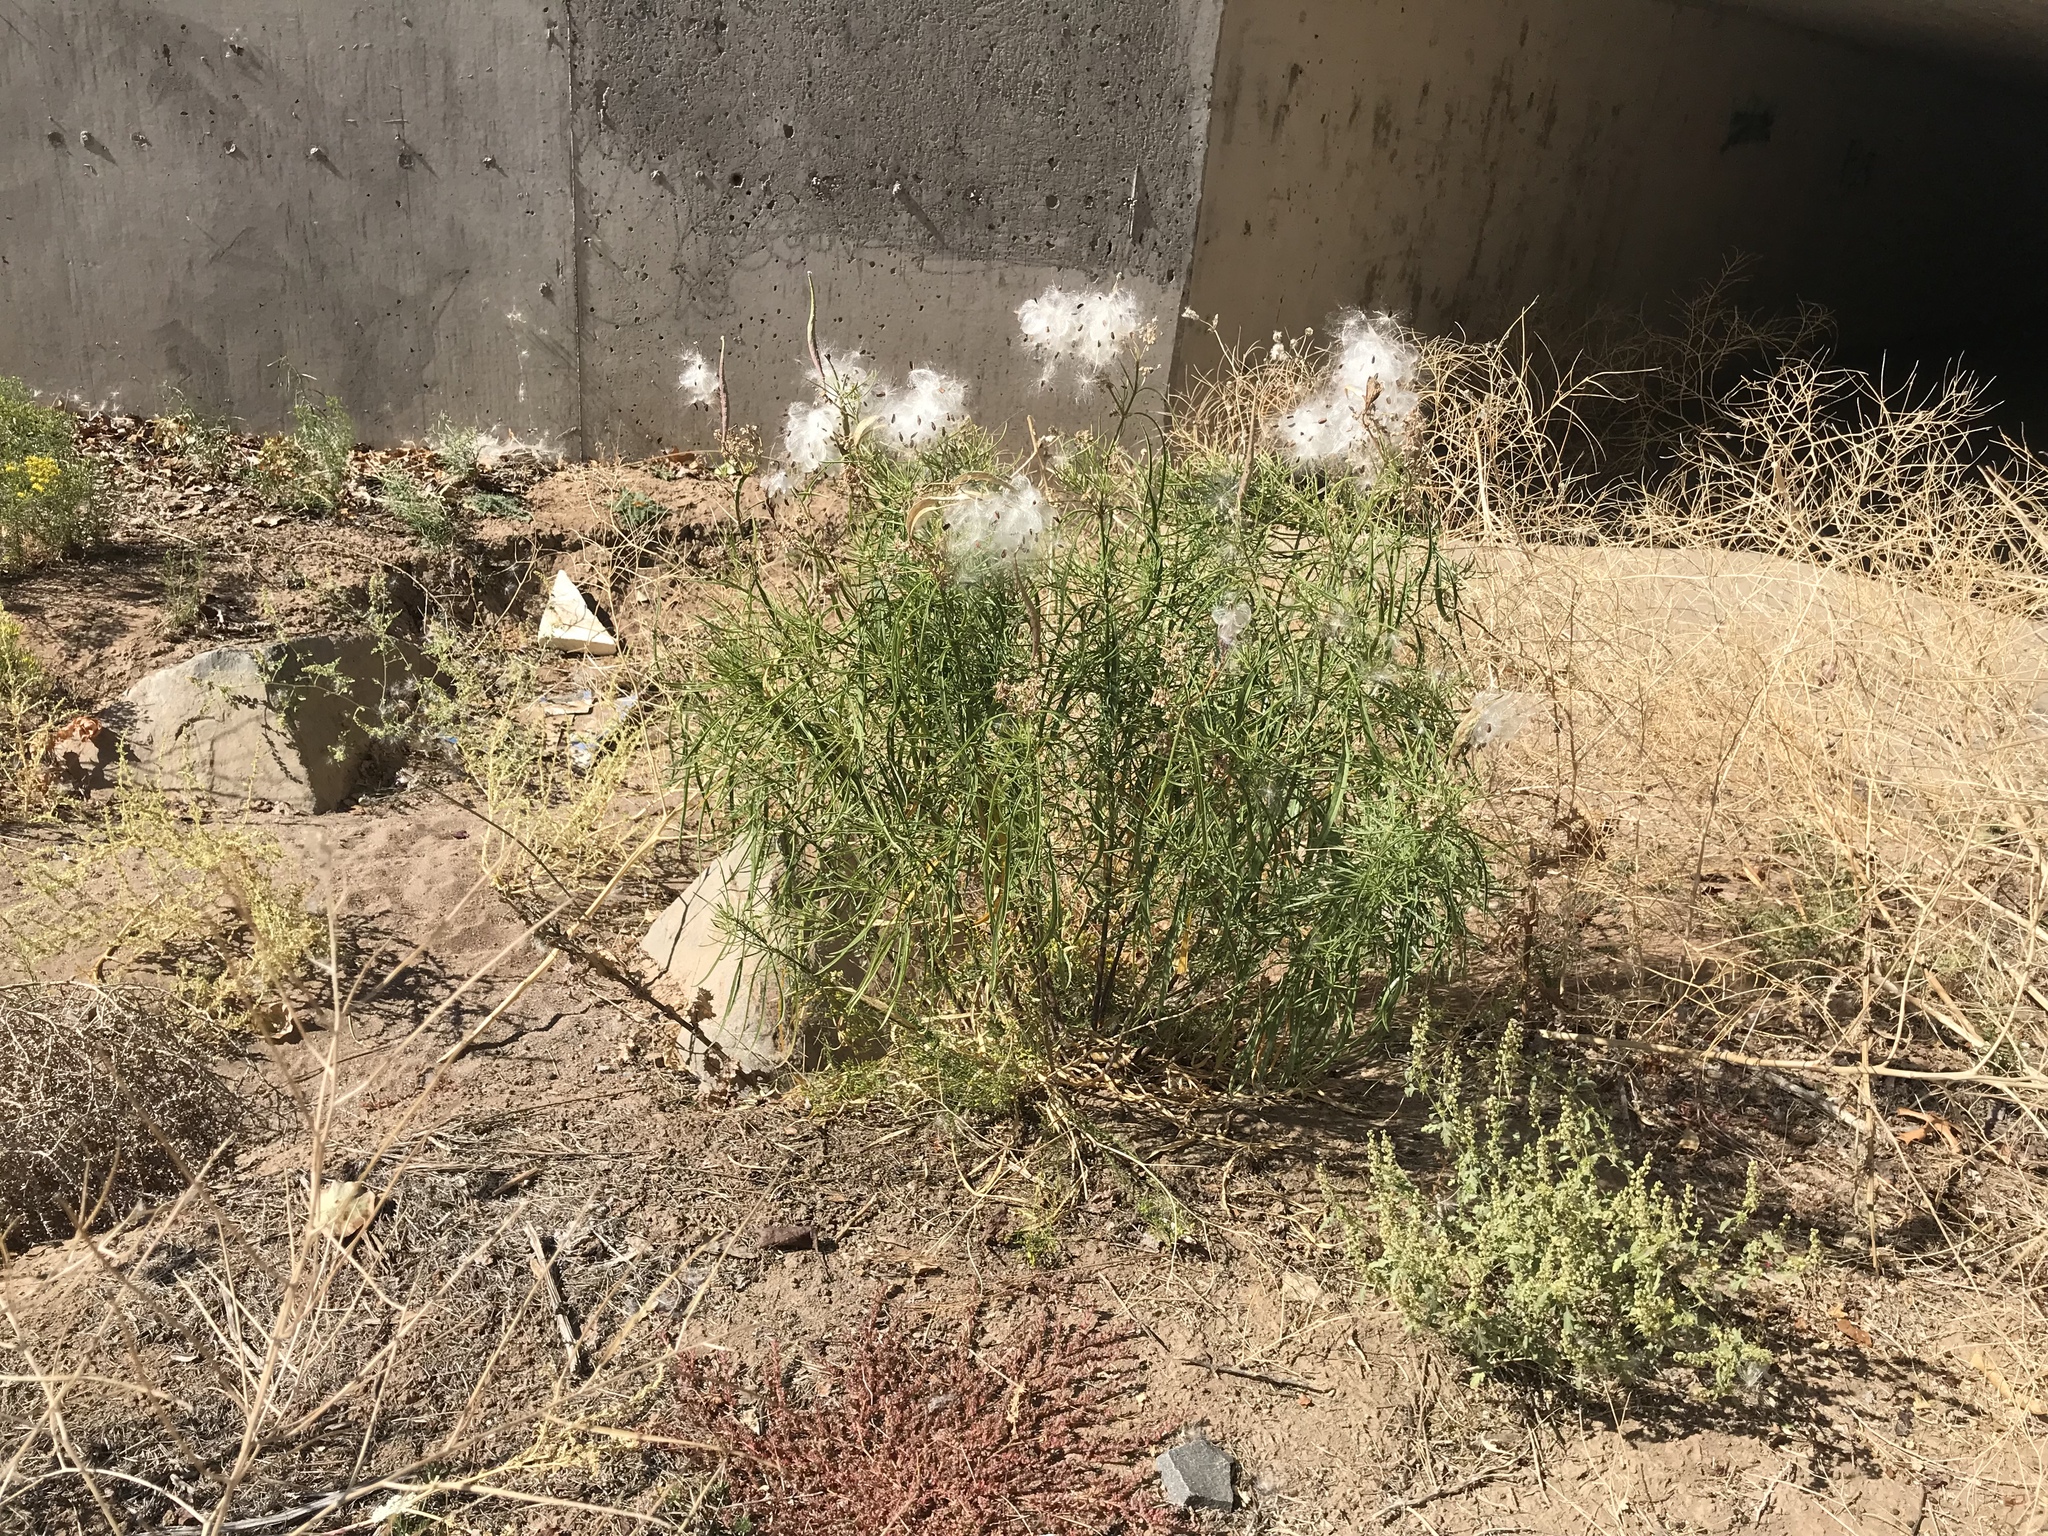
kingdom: Plantae
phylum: Tracheophyta
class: Magnoliopsida
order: Gentianales
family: Apocynaceae
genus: Asclepias
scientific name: Asclepias fascicularis
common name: Mexican milkweed
